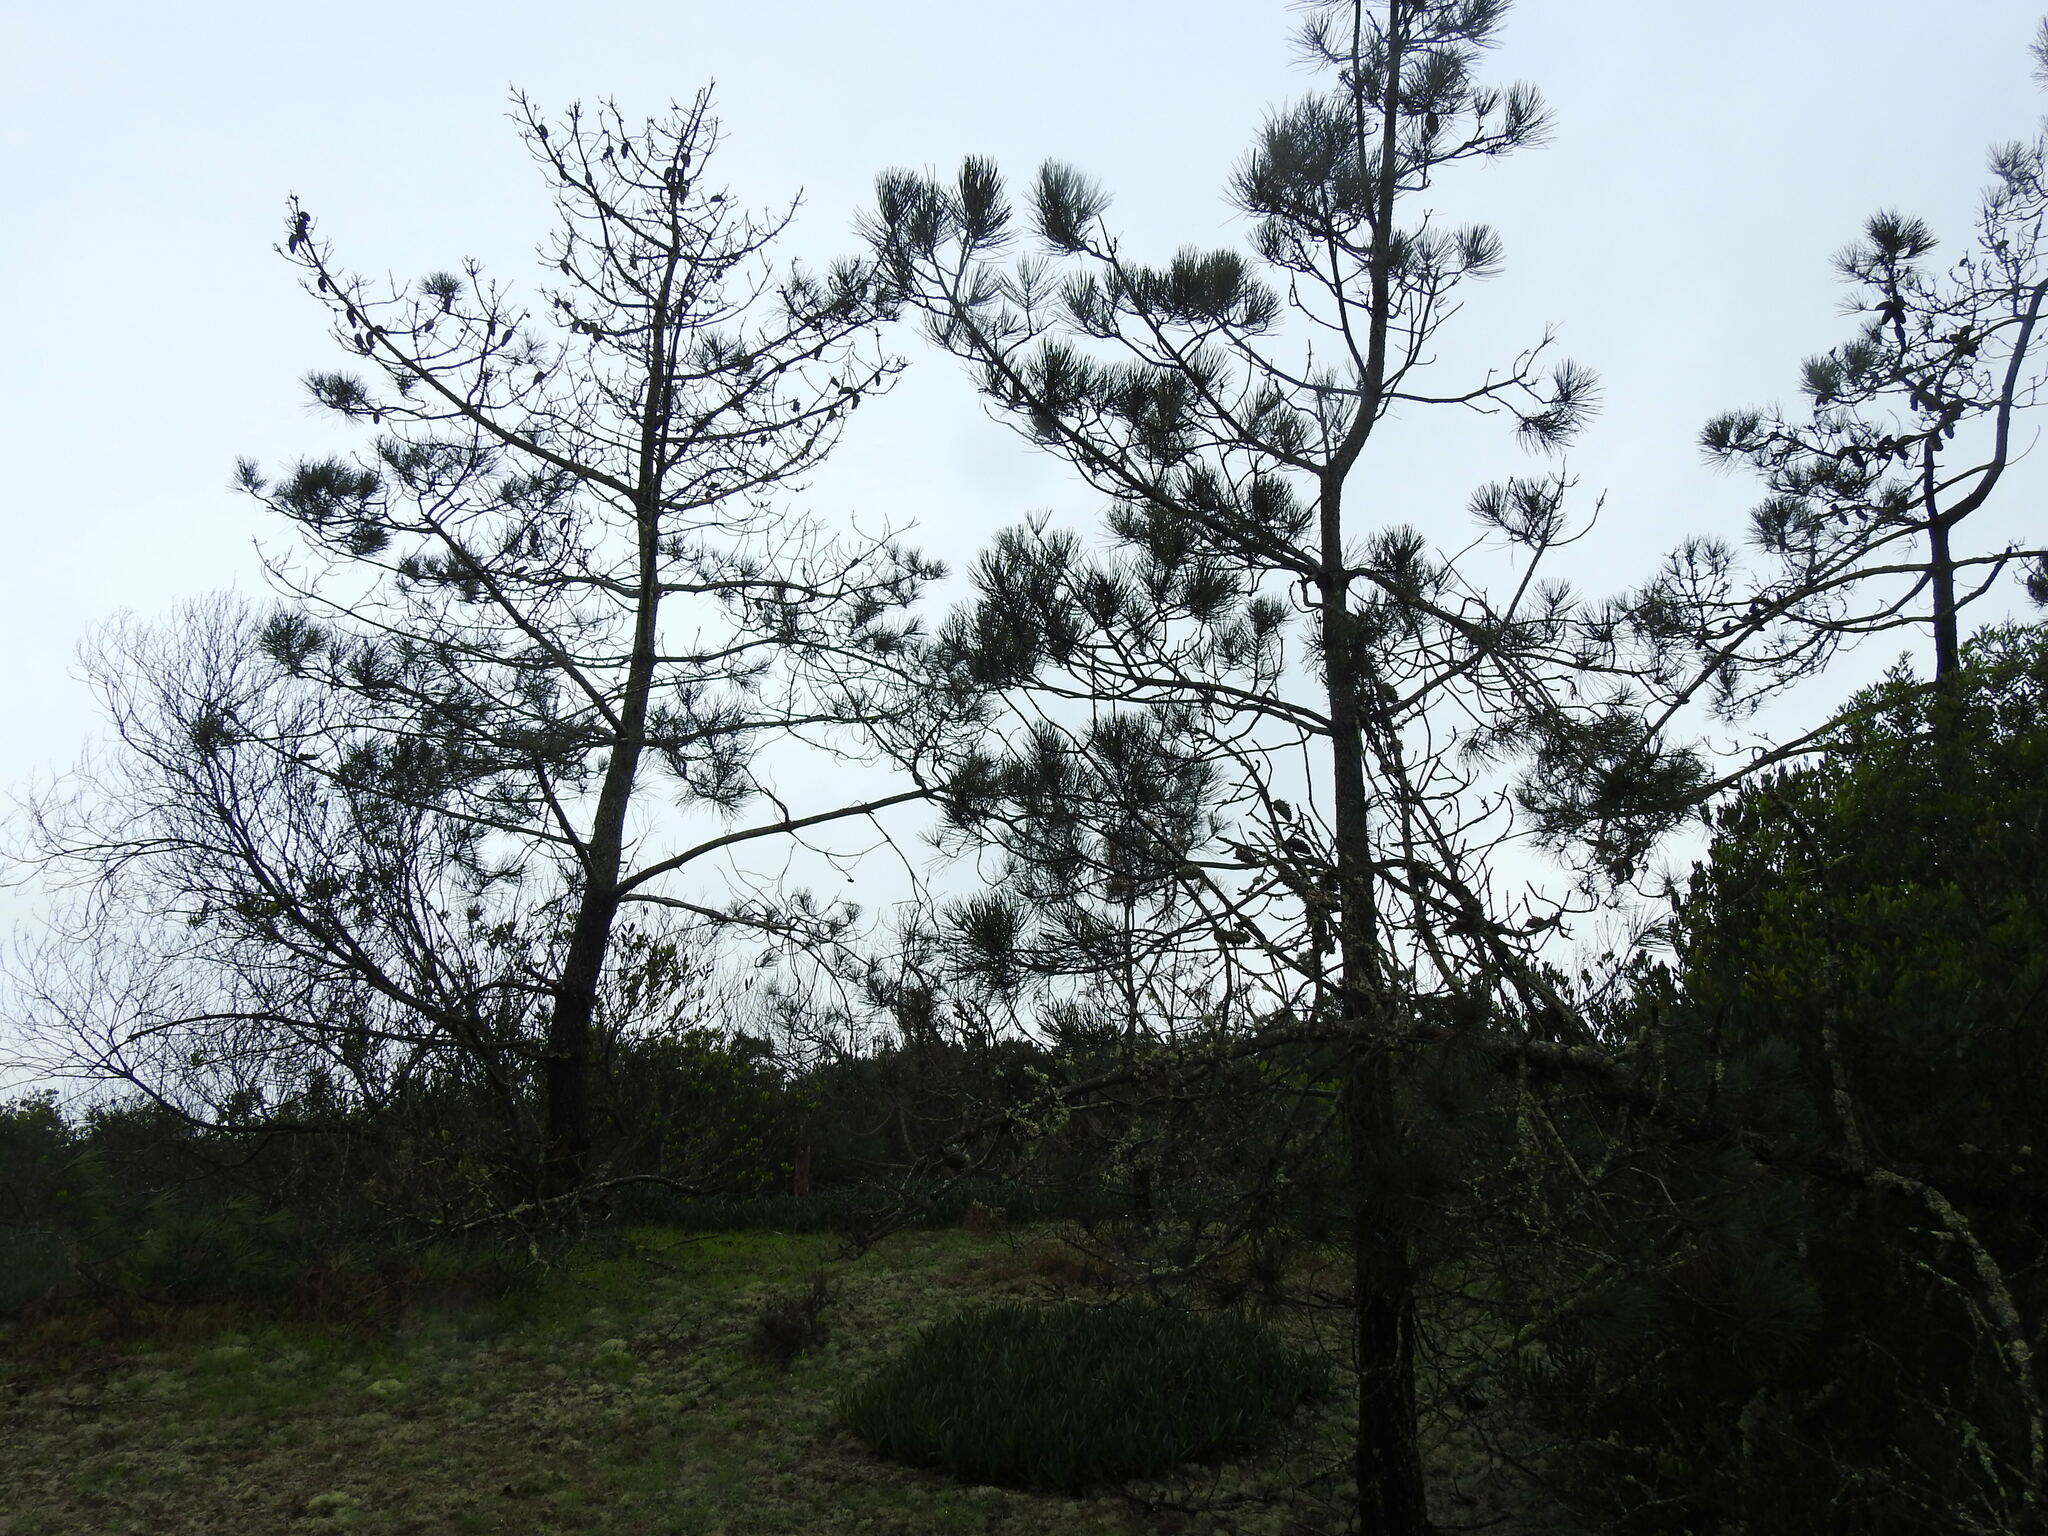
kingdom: Plantae
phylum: Tracheophyta
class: Pinopsida
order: Pinales
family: Pinaceae
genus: Pinus
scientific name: Pinus pinaster
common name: Maritime pine
